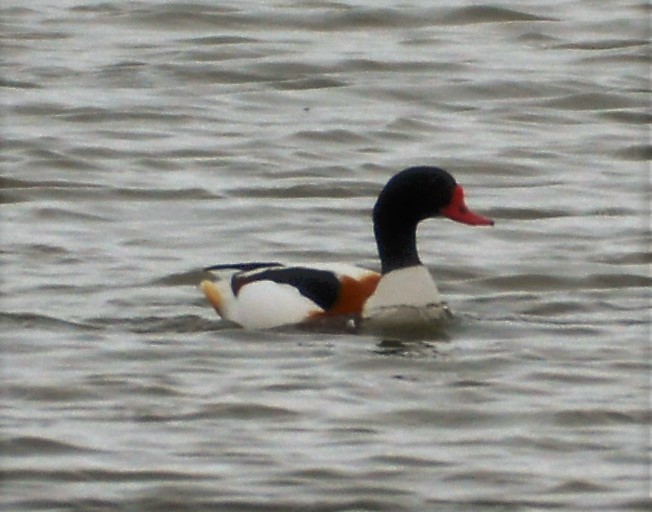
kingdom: Animalia
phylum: Chordata
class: Aves
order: Anseriformes
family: Anatidae
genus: Tadorna
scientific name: Tadorna tadorna
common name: Common shelduck
